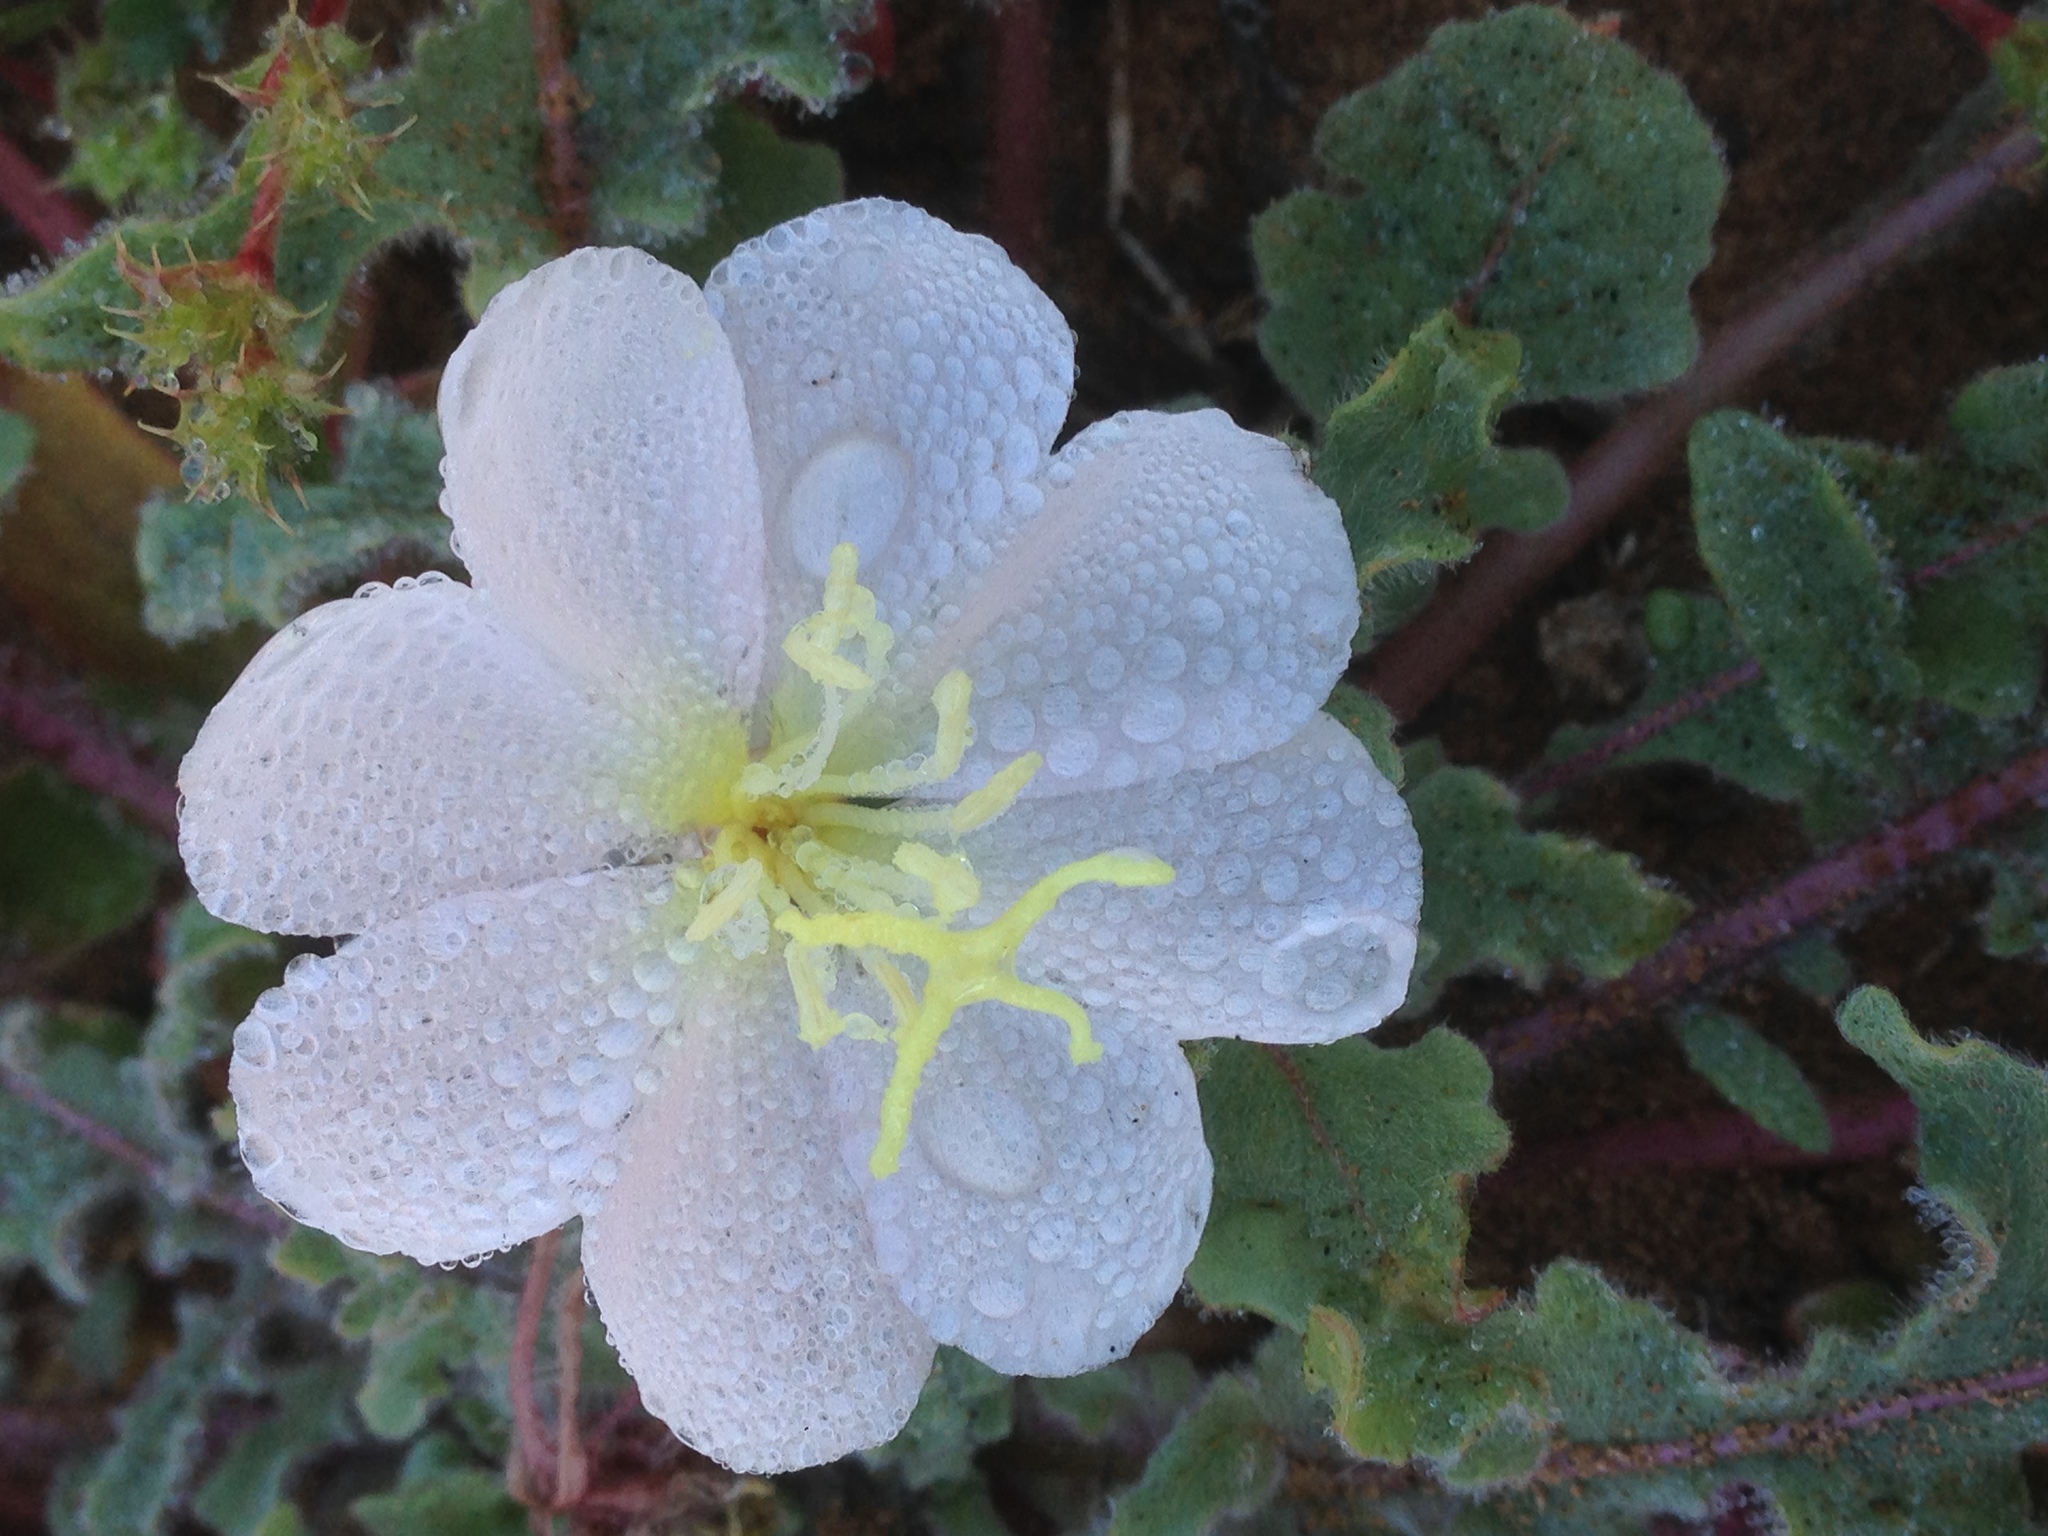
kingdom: Plantae
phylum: Tracheophyta
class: Magnoliopsida
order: Myrtales
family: Onagraceae
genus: Oenothera
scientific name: Oenothera wigginsii
